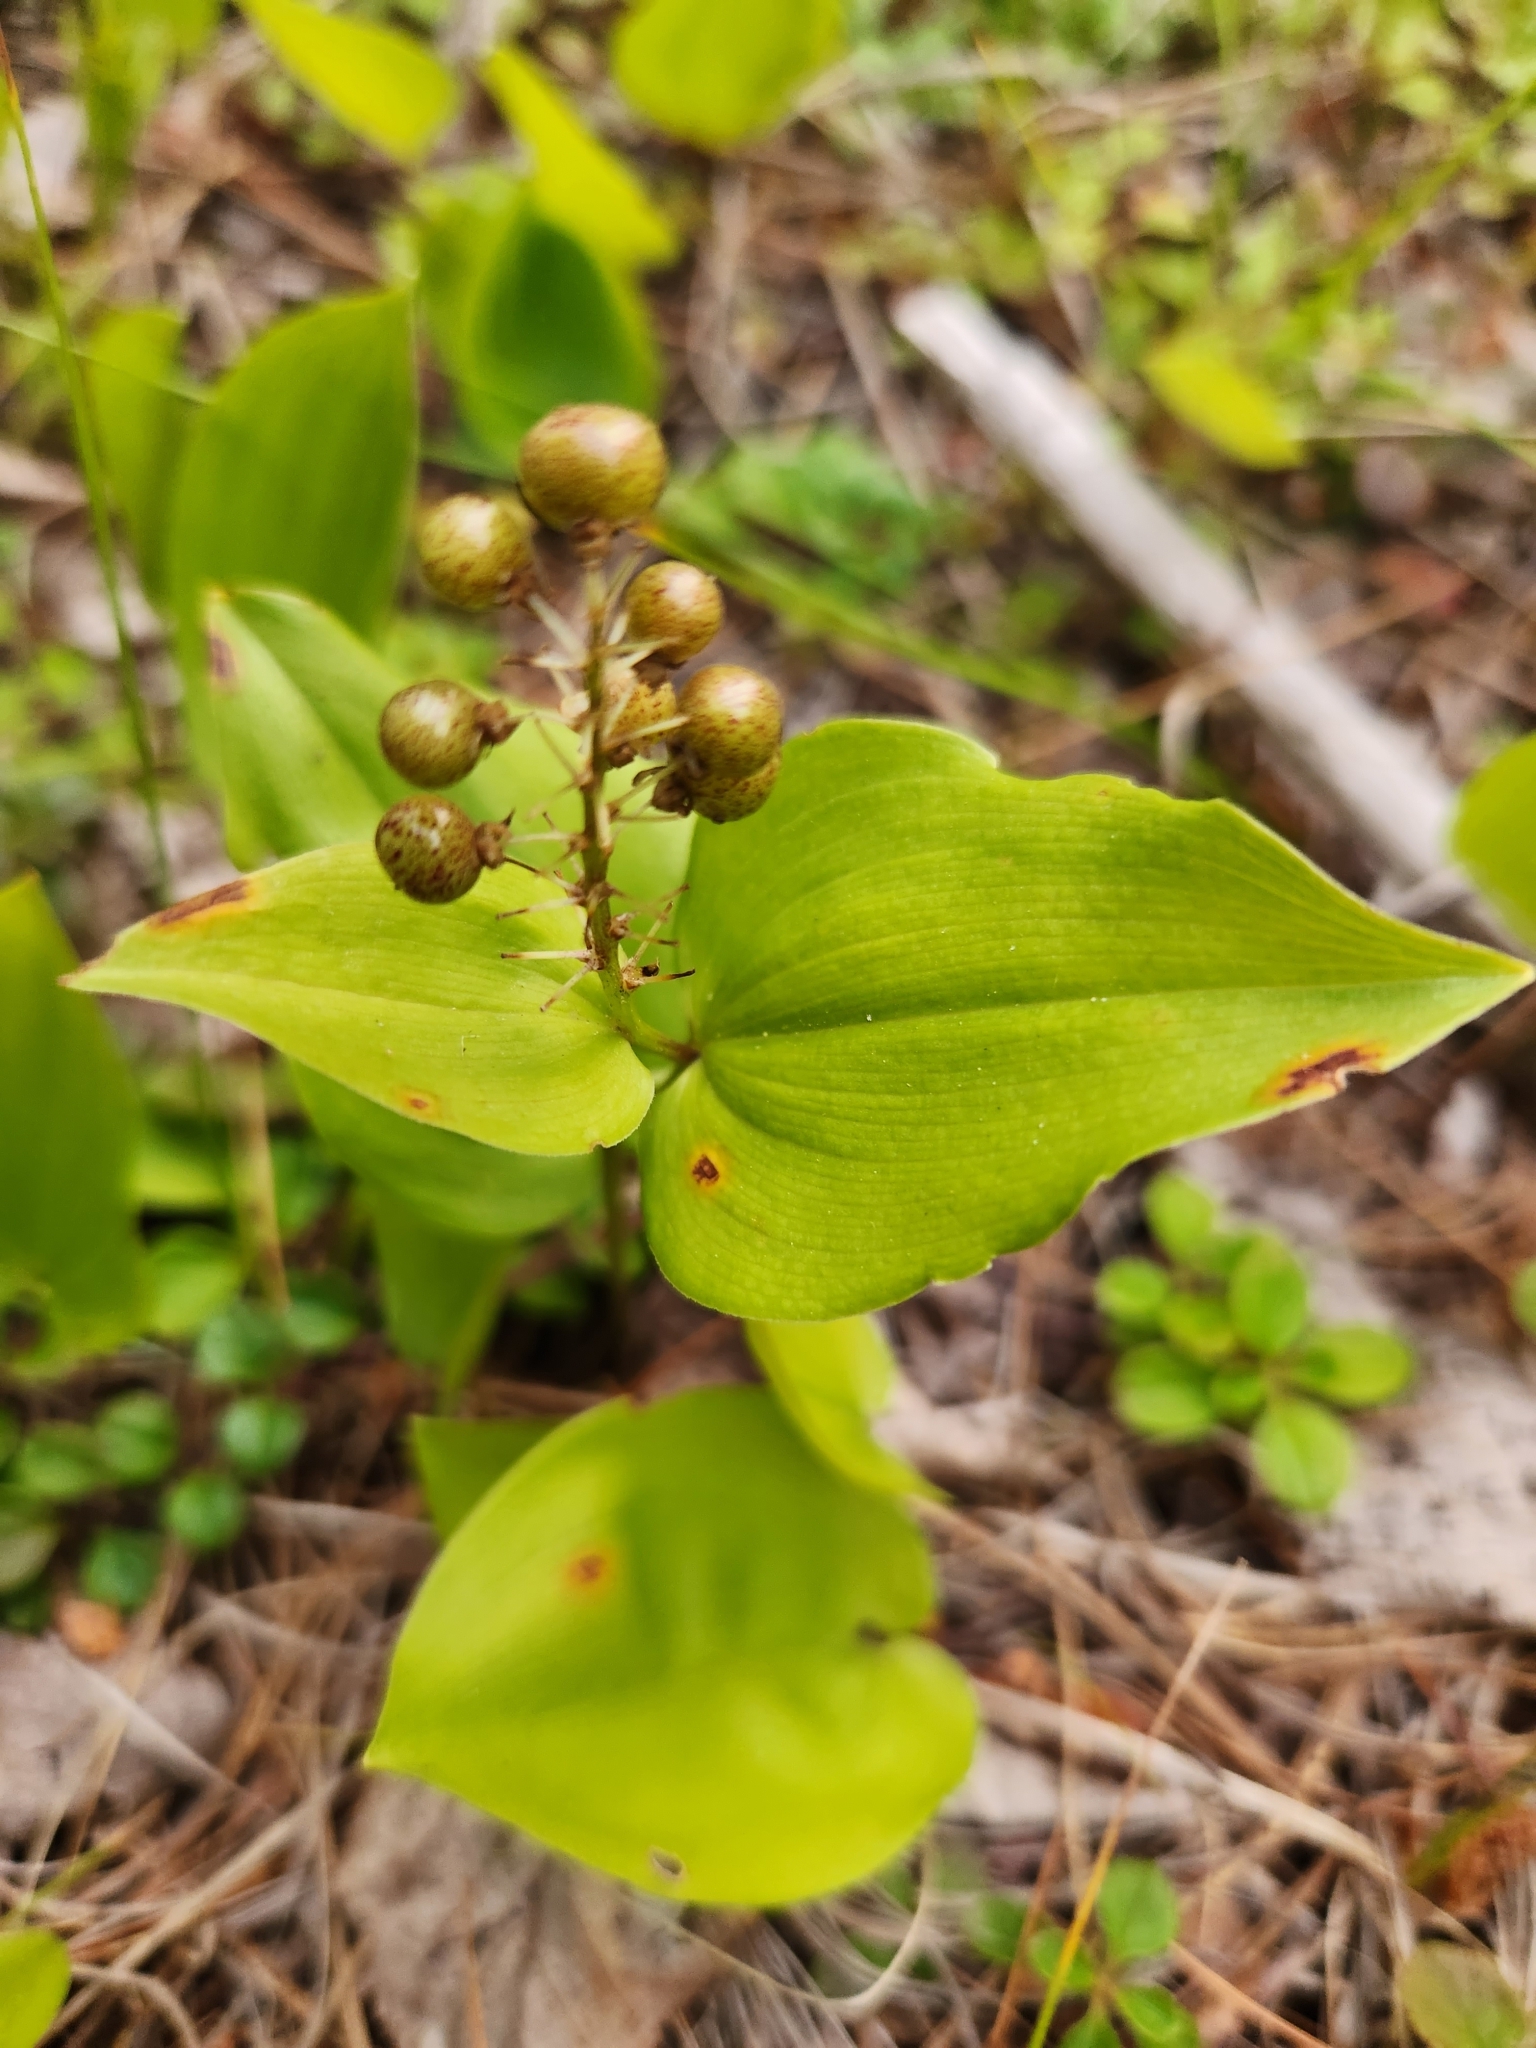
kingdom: Plantae
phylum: Tracheophyta
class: Liliopsida
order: Asparagales
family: Asparagaceae
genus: Maianthemum
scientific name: Maianthemum canadense
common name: False lily-of-the-valley
